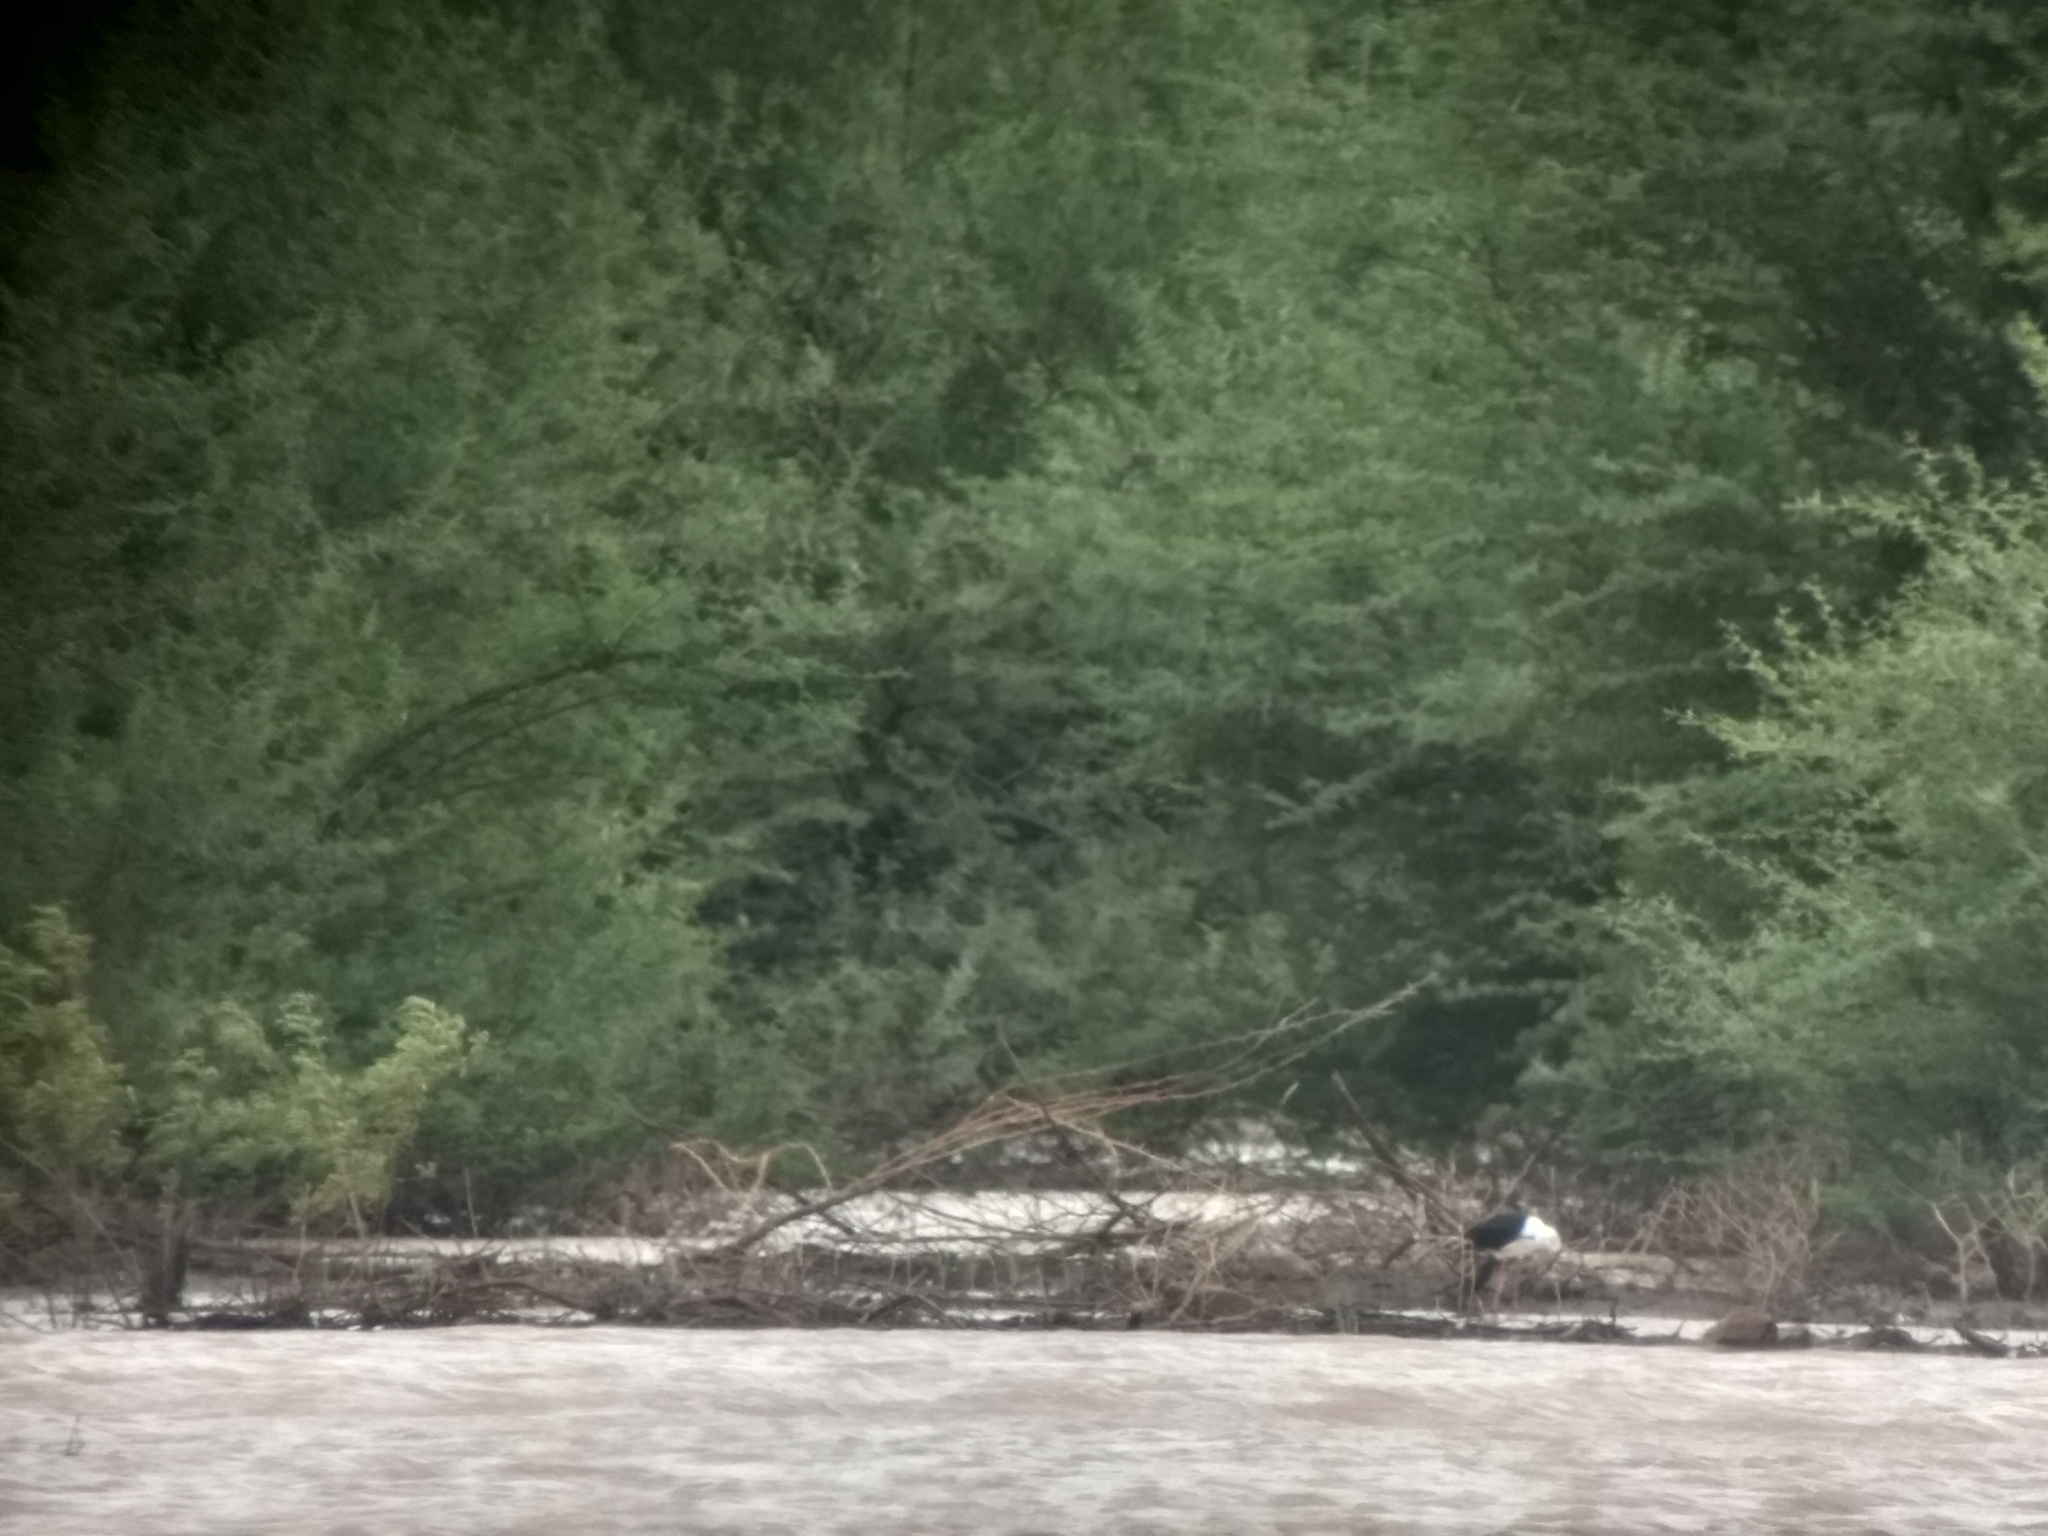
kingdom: Animalia
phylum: Chordata
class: Aves
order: Charadriiformes
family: Recurvirostridae
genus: Himantopus
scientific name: Himantopus himantopus
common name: Black-winged stilt
